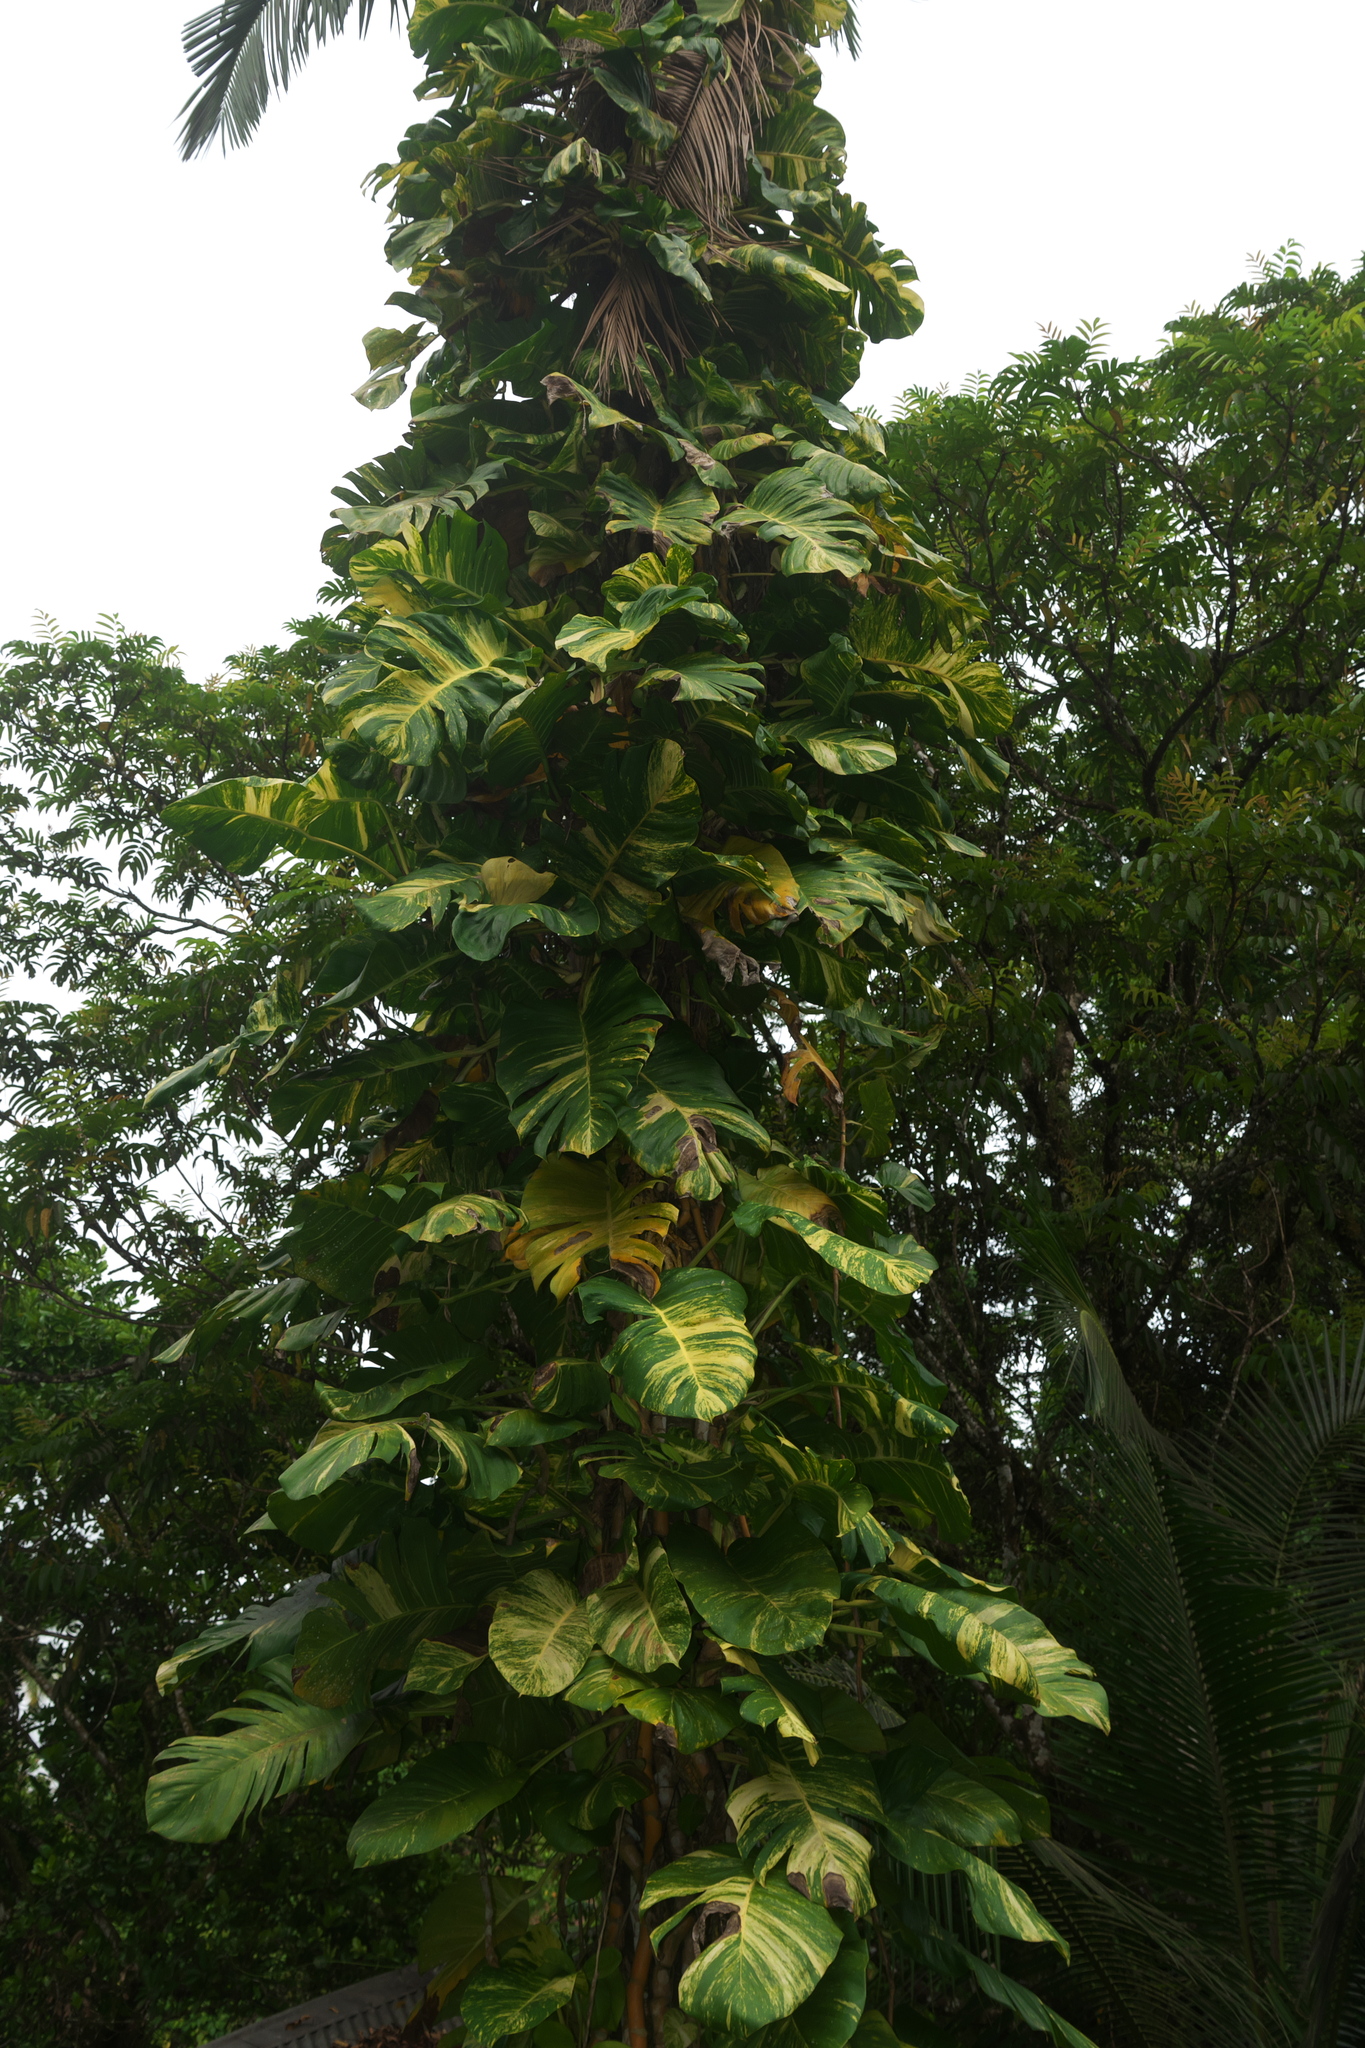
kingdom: Plantae
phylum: Tracheophyta
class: Liliopsida
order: Alismatales
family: Araceae
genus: Epipremnum
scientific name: Epipremnum aureum
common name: Golden hunter's-robe
